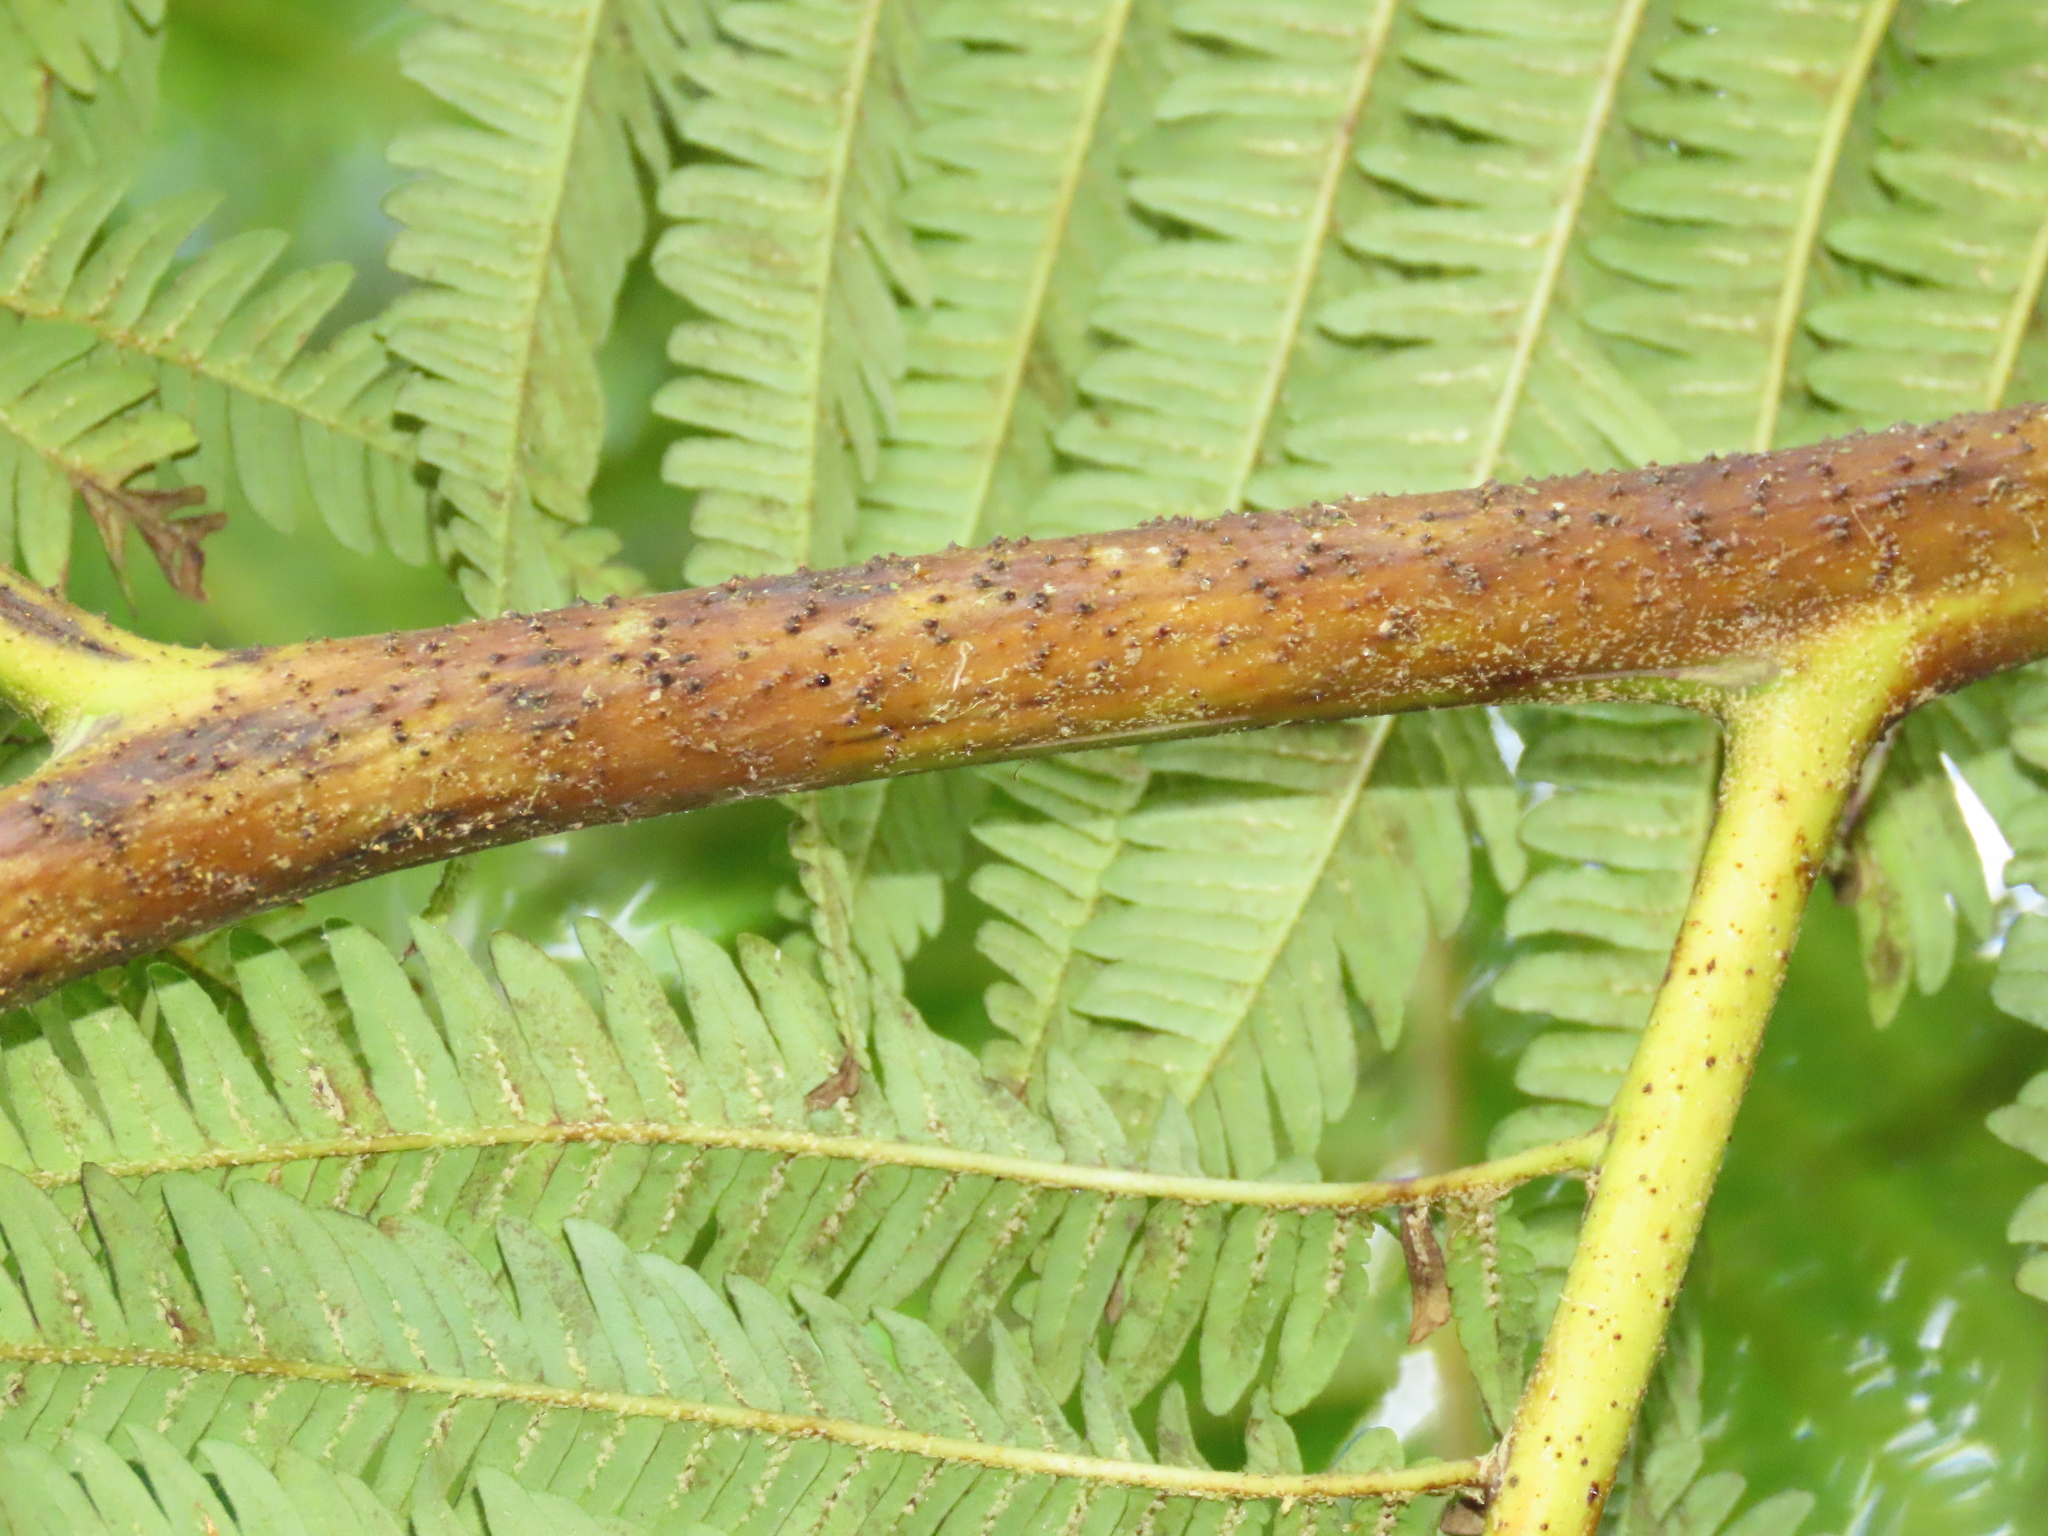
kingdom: Plantae
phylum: Tracheophyta
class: Polypodiopsida
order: Cyatheales
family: Cyatheaceae
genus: Alsophila
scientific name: Alsophila lepifera
